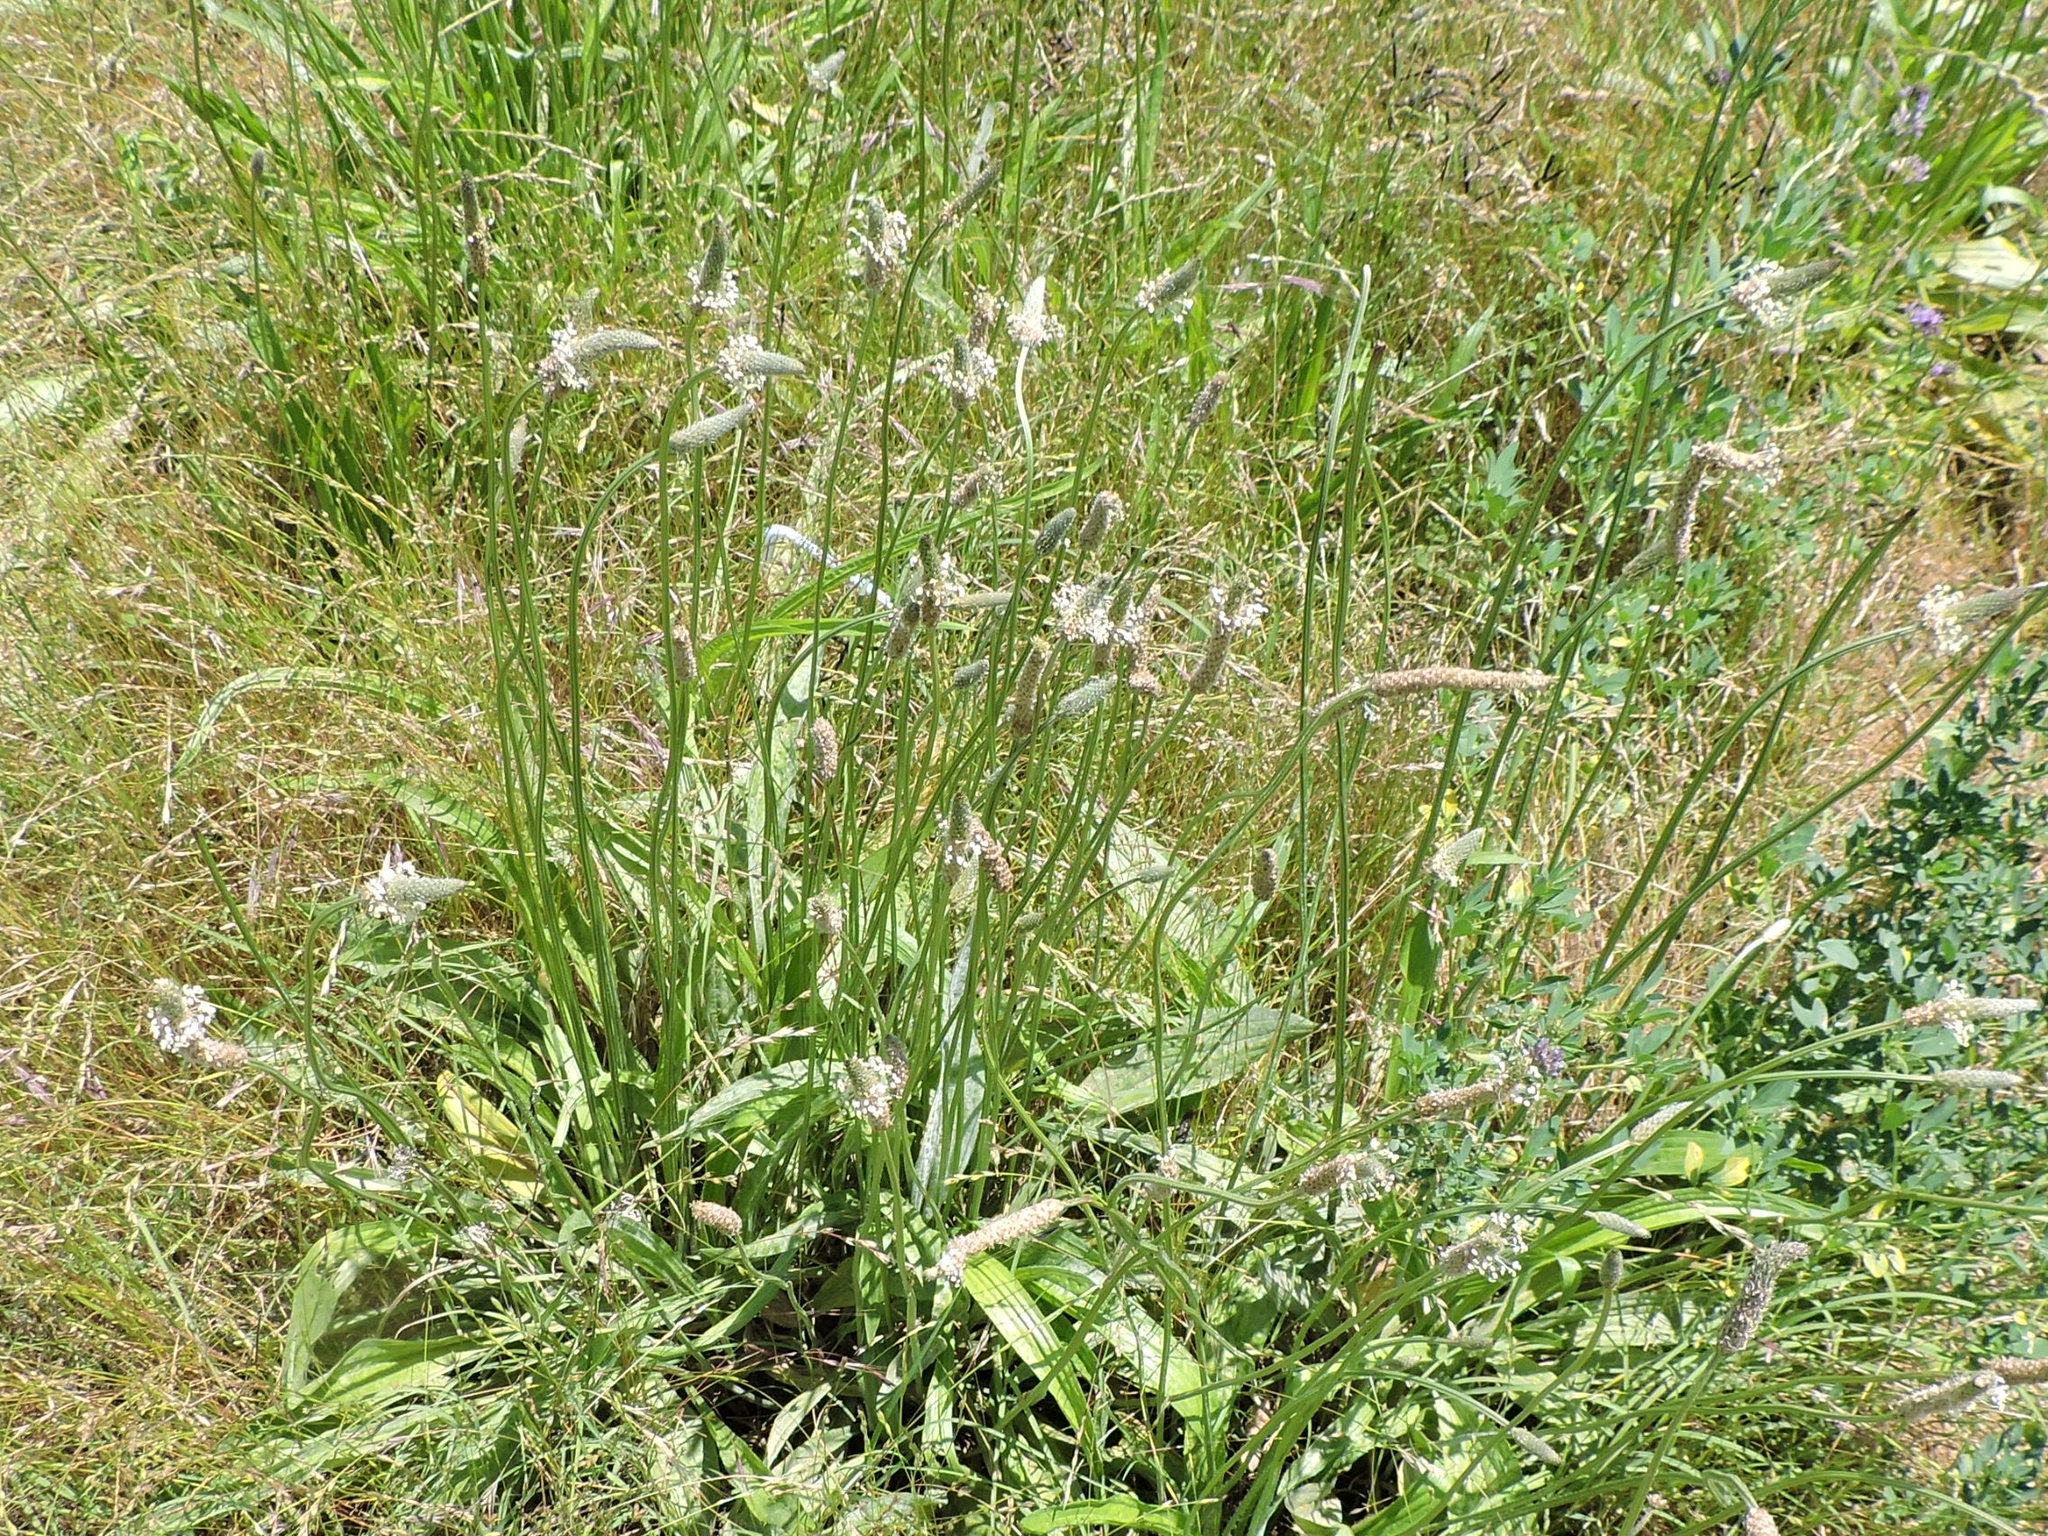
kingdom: Plantae
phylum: Tracheophyta
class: Magnoliopsida
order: Lamiales
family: Plantaginaceae
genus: Plantago
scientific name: Plantago lanceolata
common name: Ribwort plantain
